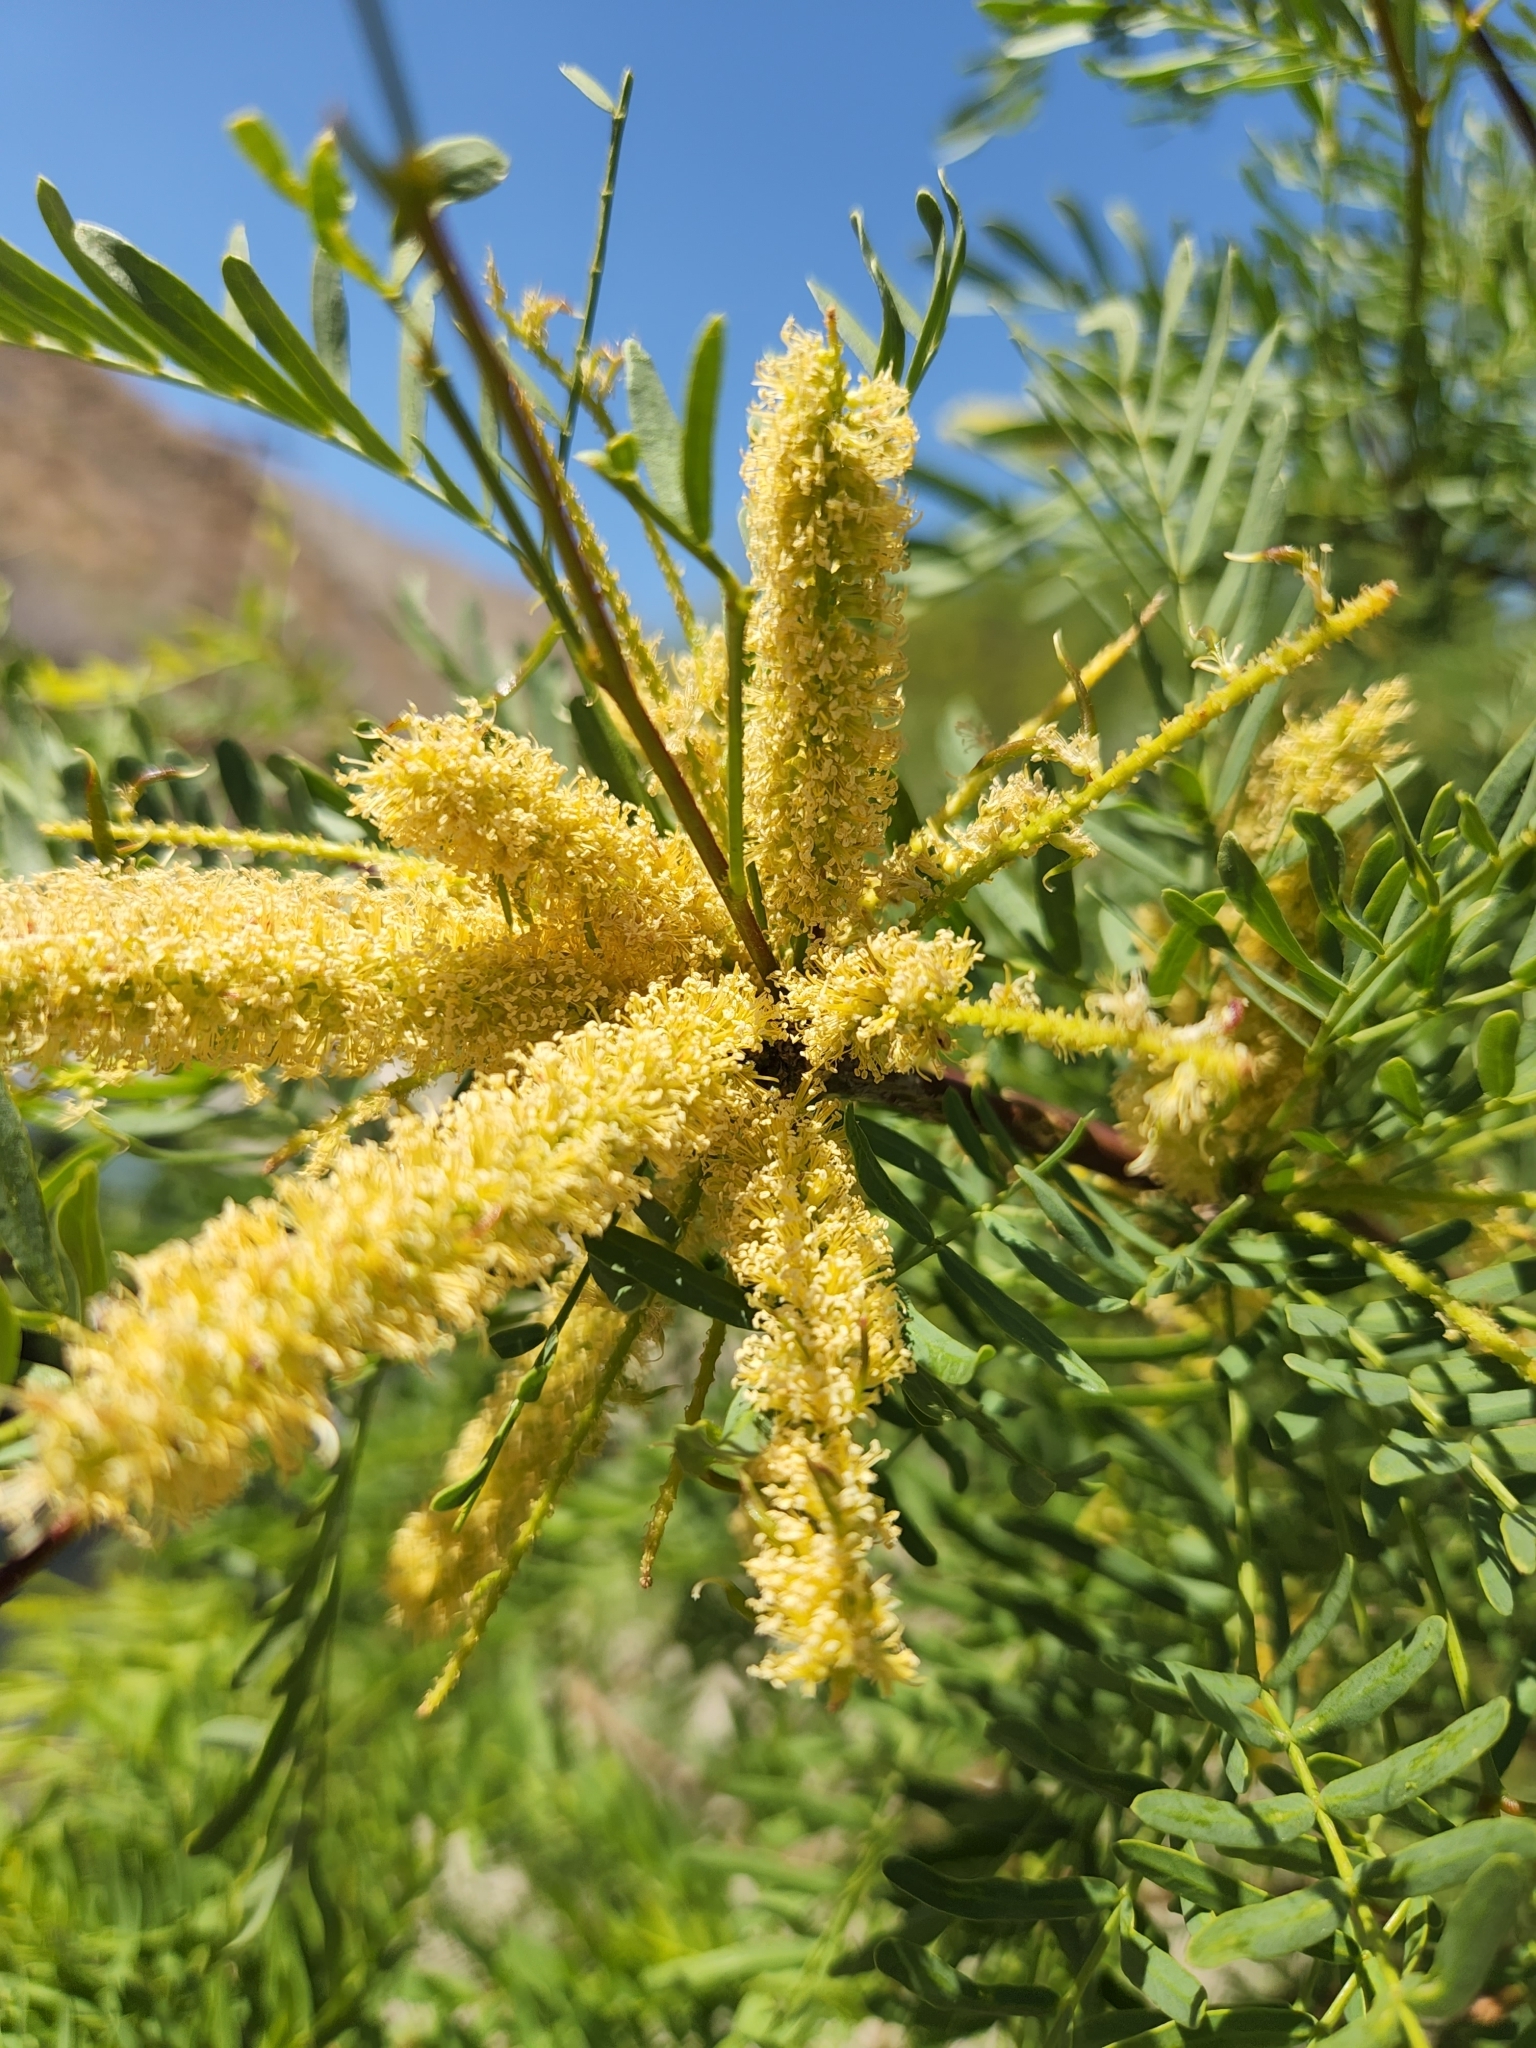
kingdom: Plantae
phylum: Tracheophyta
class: Magnoliopsida
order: Fabales
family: Fabaceae
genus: Prosopis
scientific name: Prosopis pubescens
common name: Screw-bean
